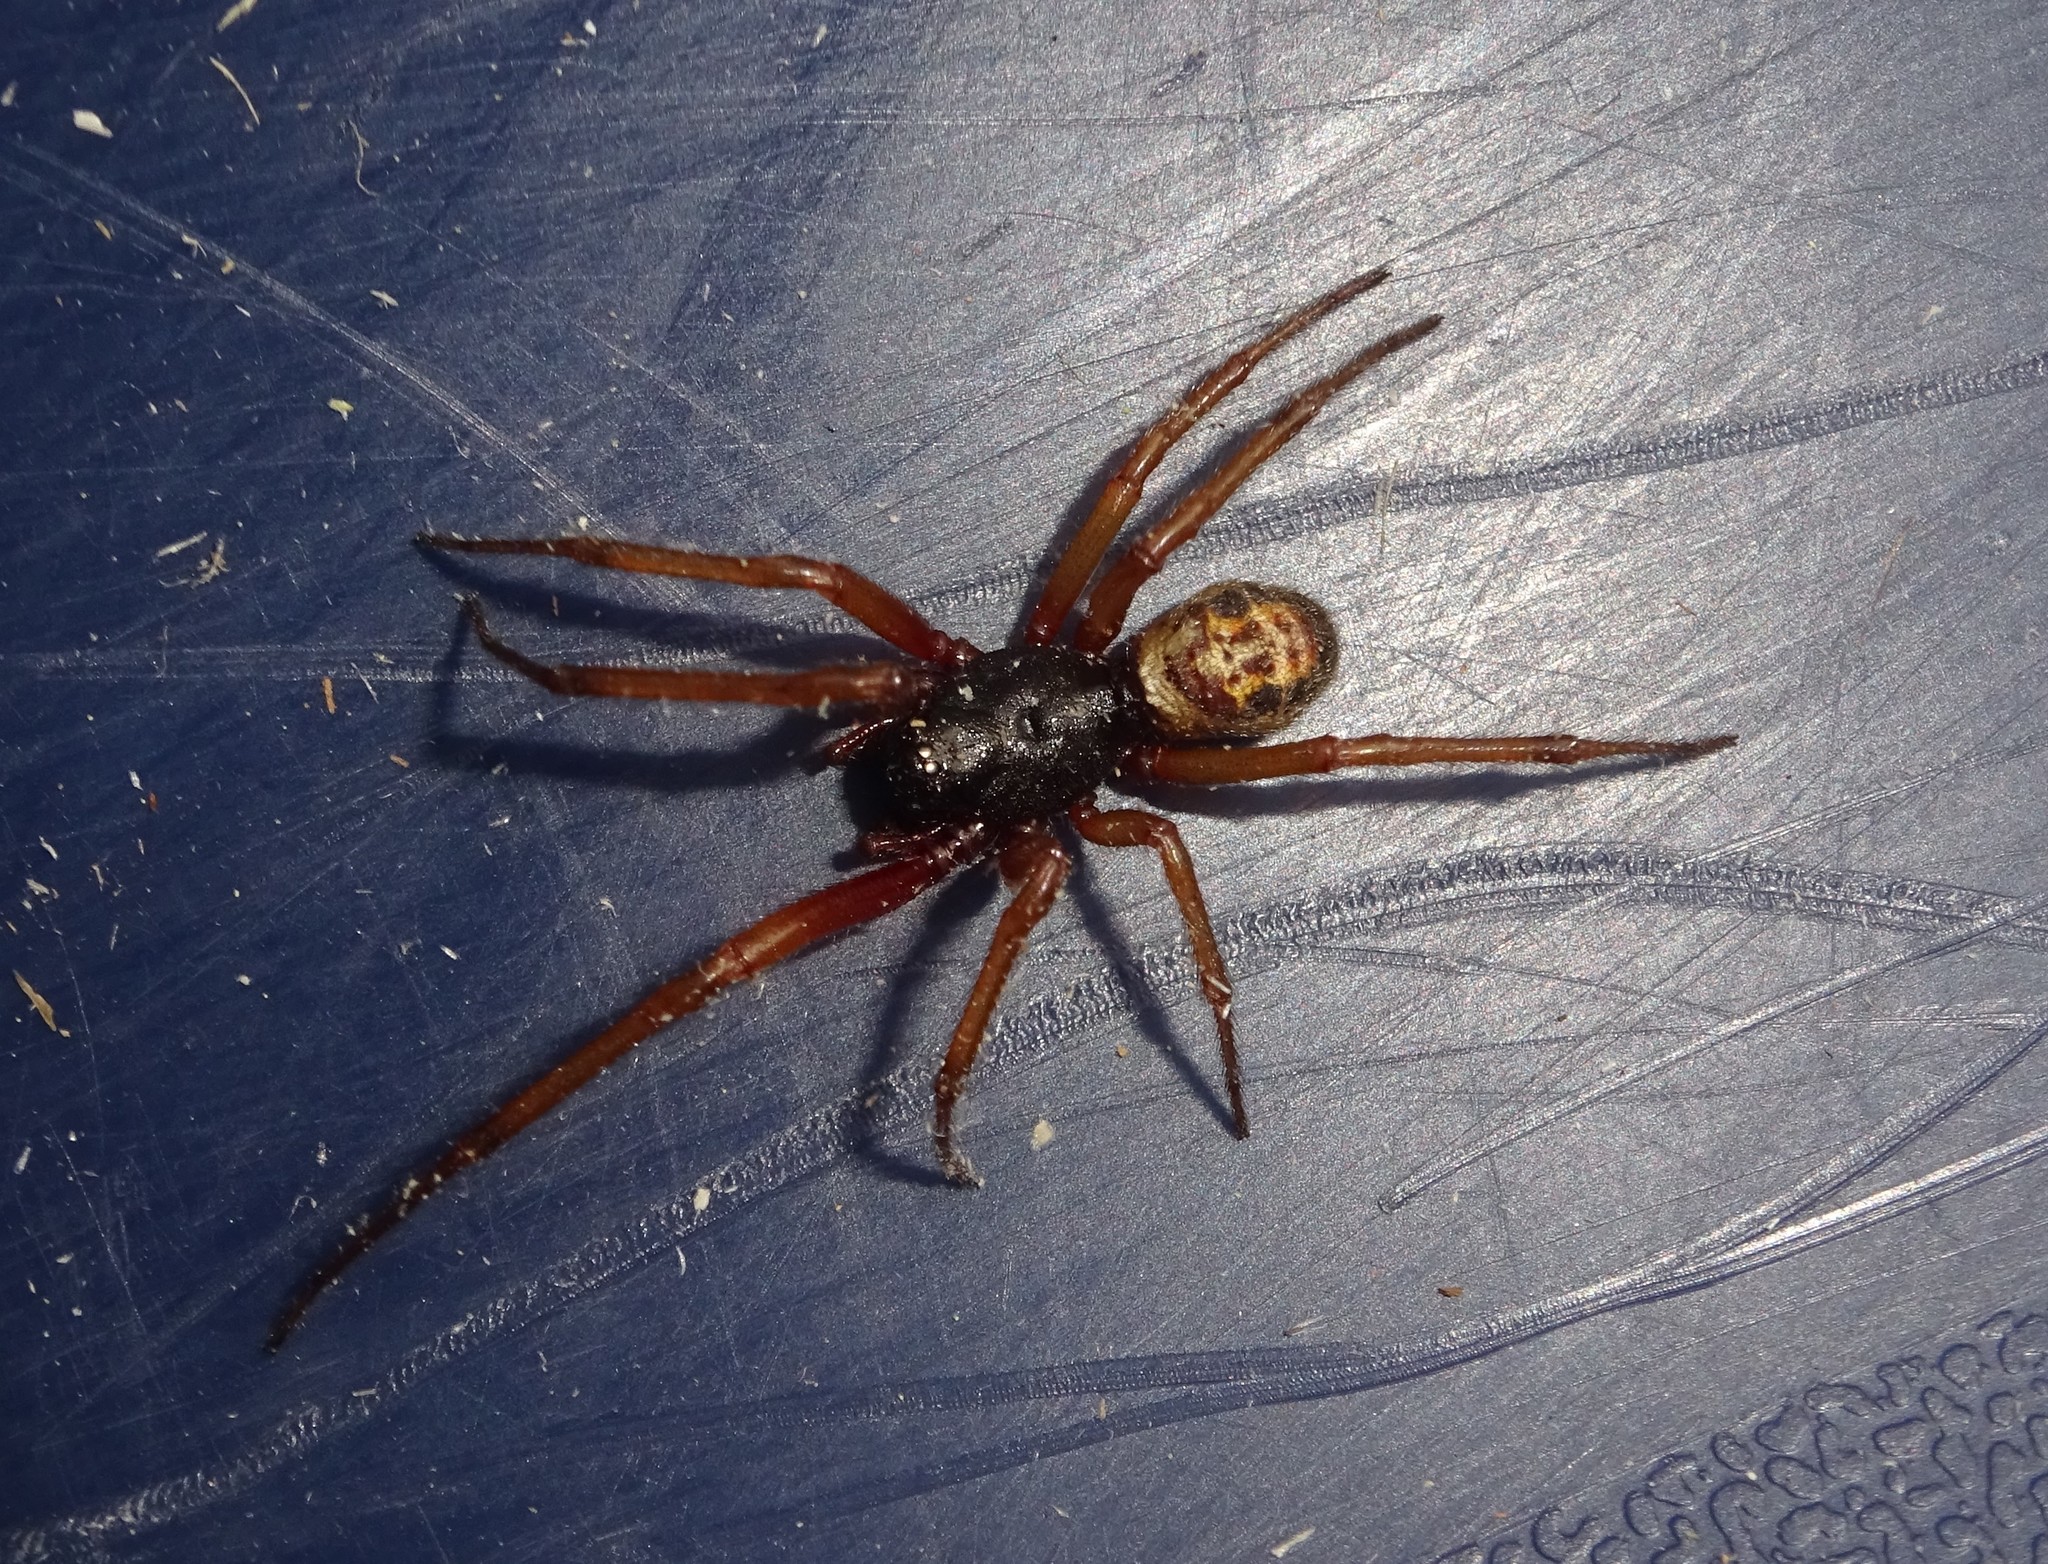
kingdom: Animalia
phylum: Arthropoda
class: Arachnida
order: Araneae
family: Theridiidae
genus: Steatoda
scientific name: Steatoda nobilis
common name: Cobweb weaver
